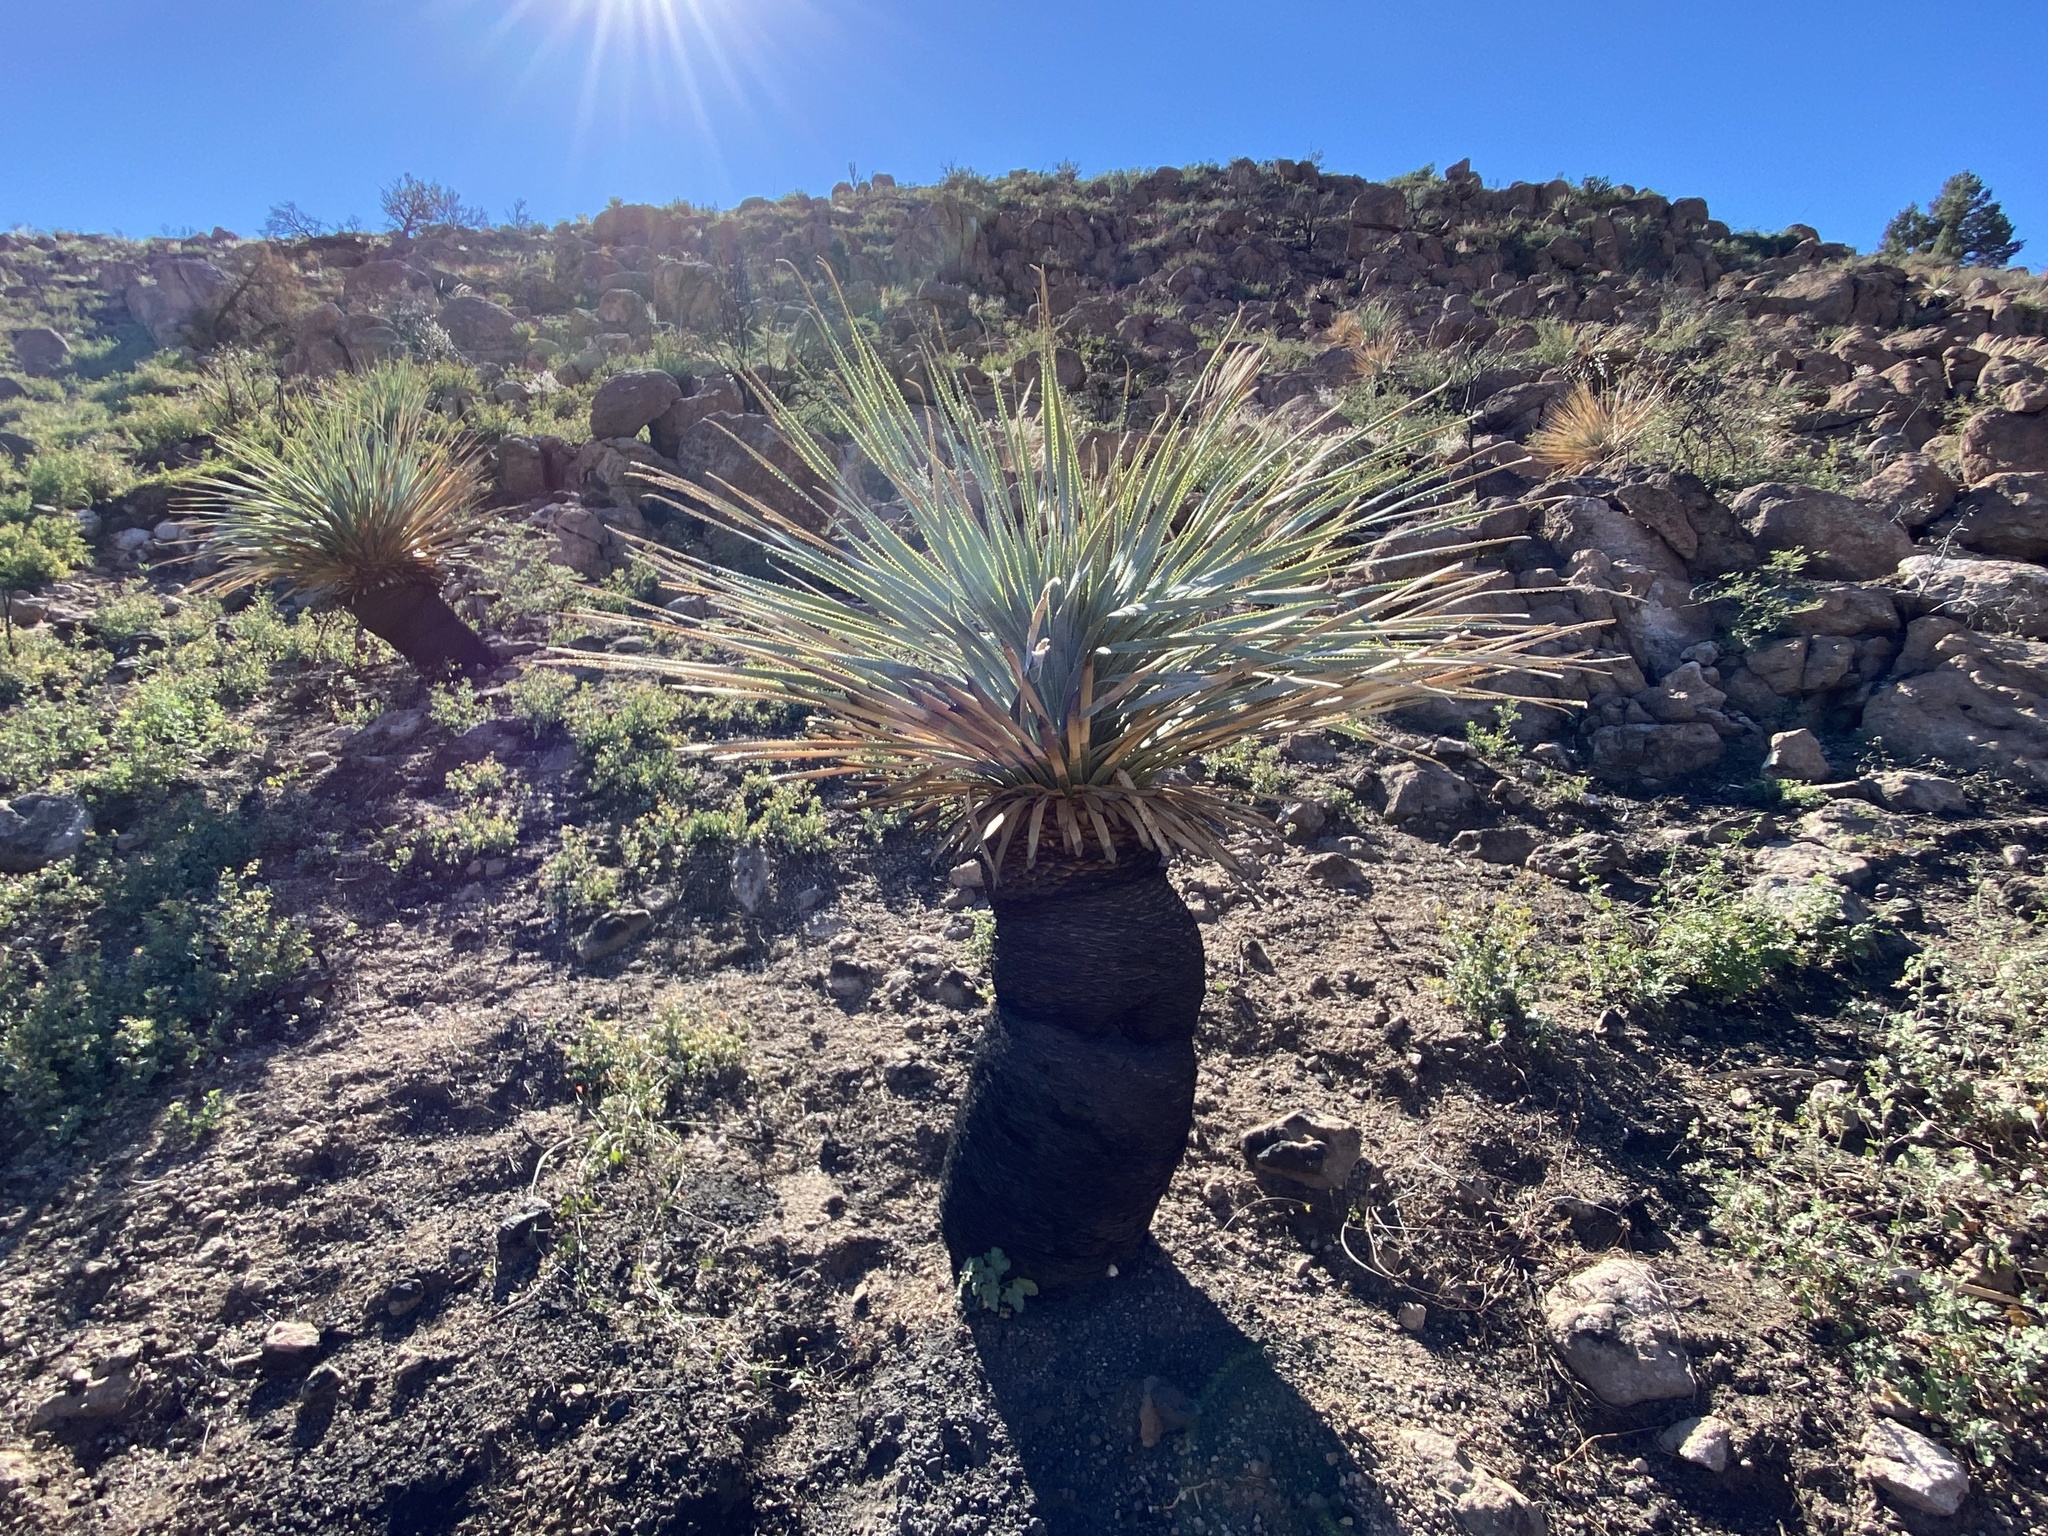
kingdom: Plantae
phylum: Tracheophyta
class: Liliopsida
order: Asparagales
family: Asparagaceae
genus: Dasylirion
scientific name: Dasylirion wheeleri
